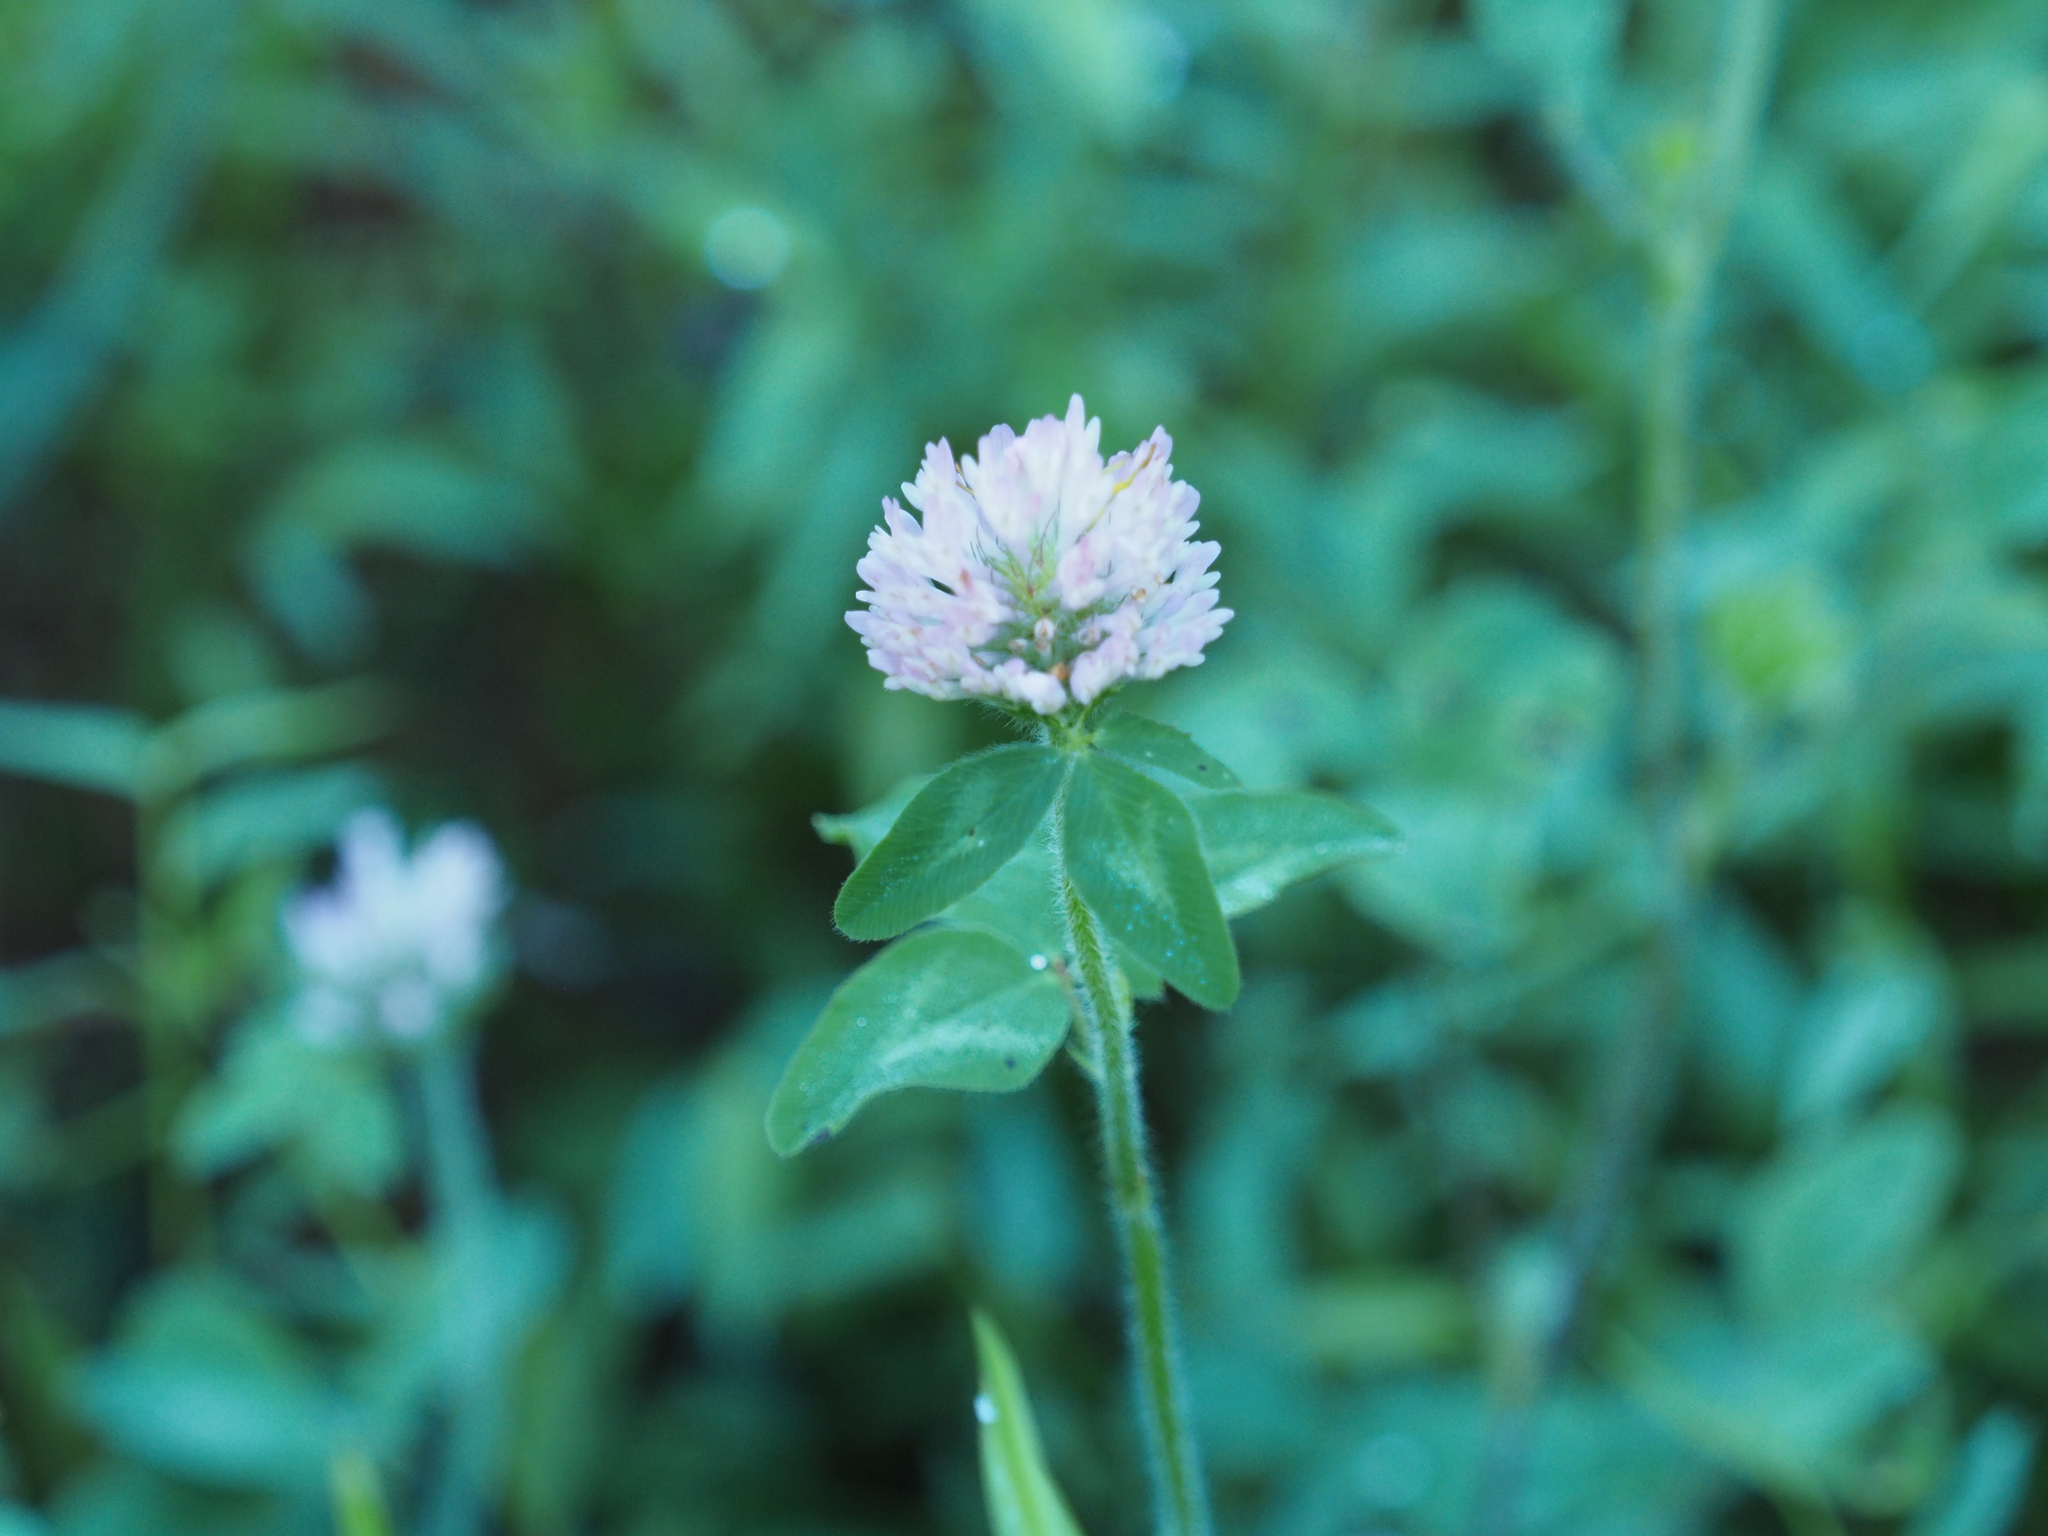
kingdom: Plantae
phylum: Tracheophyta
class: Magnoliopsida
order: Fabales
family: Fabaceae
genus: Trifolium
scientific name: Trifolium pratense
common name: Red clover
